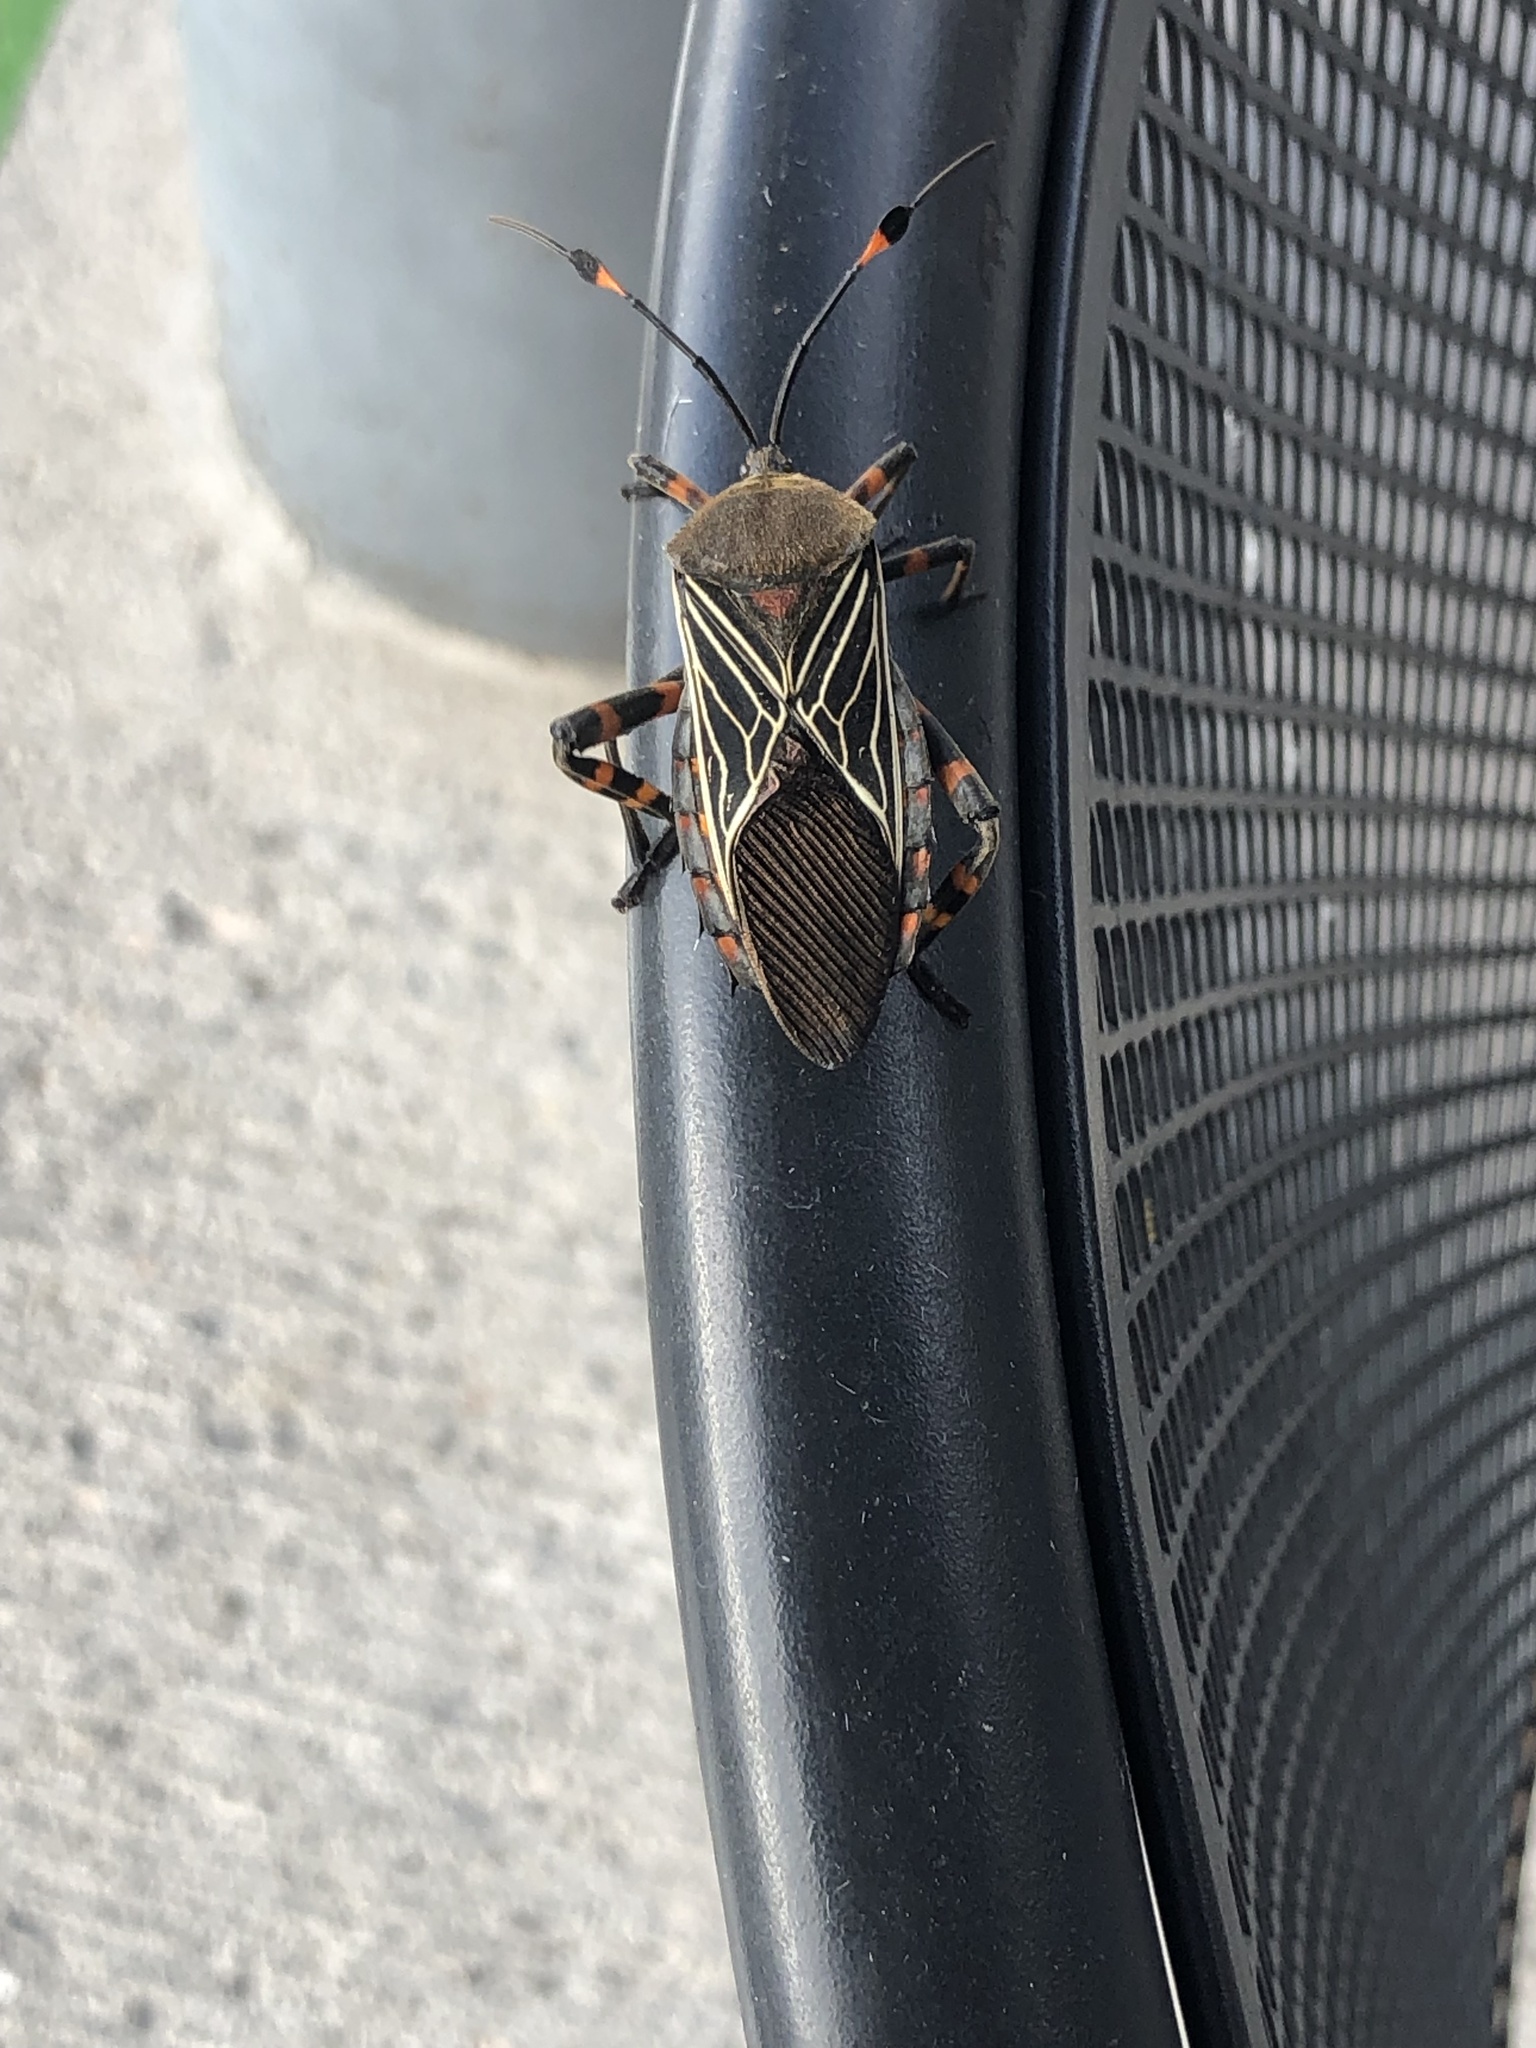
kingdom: Animalia
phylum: Arthropoda
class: Insecta
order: Hemiptera
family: Coreidae
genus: Thasus
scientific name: Thasus
